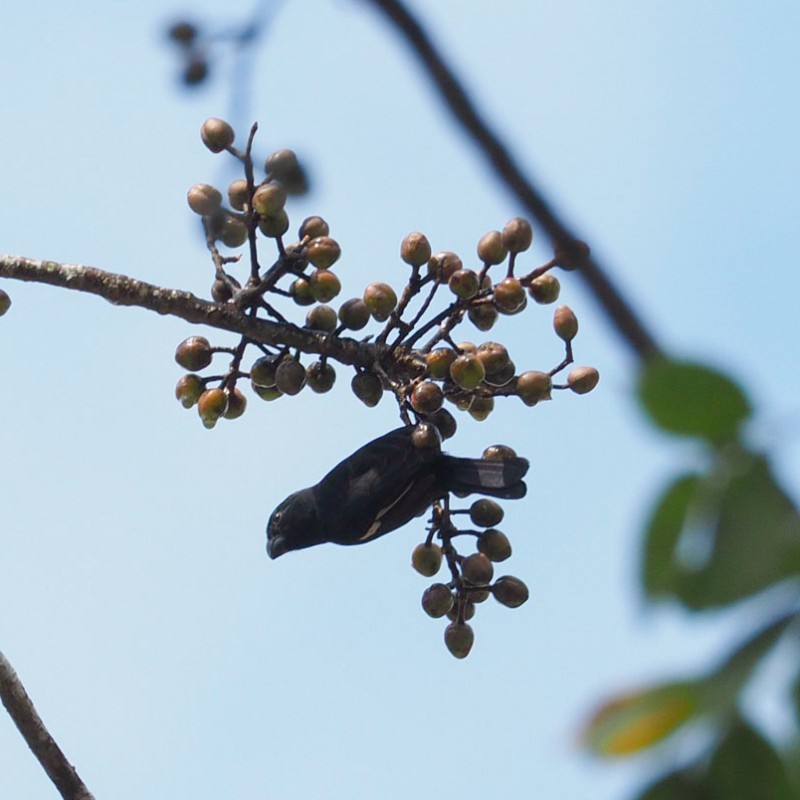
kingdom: Animalia
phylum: Chordata
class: Aves
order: Passeriformes
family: Thraupidae
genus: Melopyrrha
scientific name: Melopyrrha nigra
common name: Cuban bullfinch
